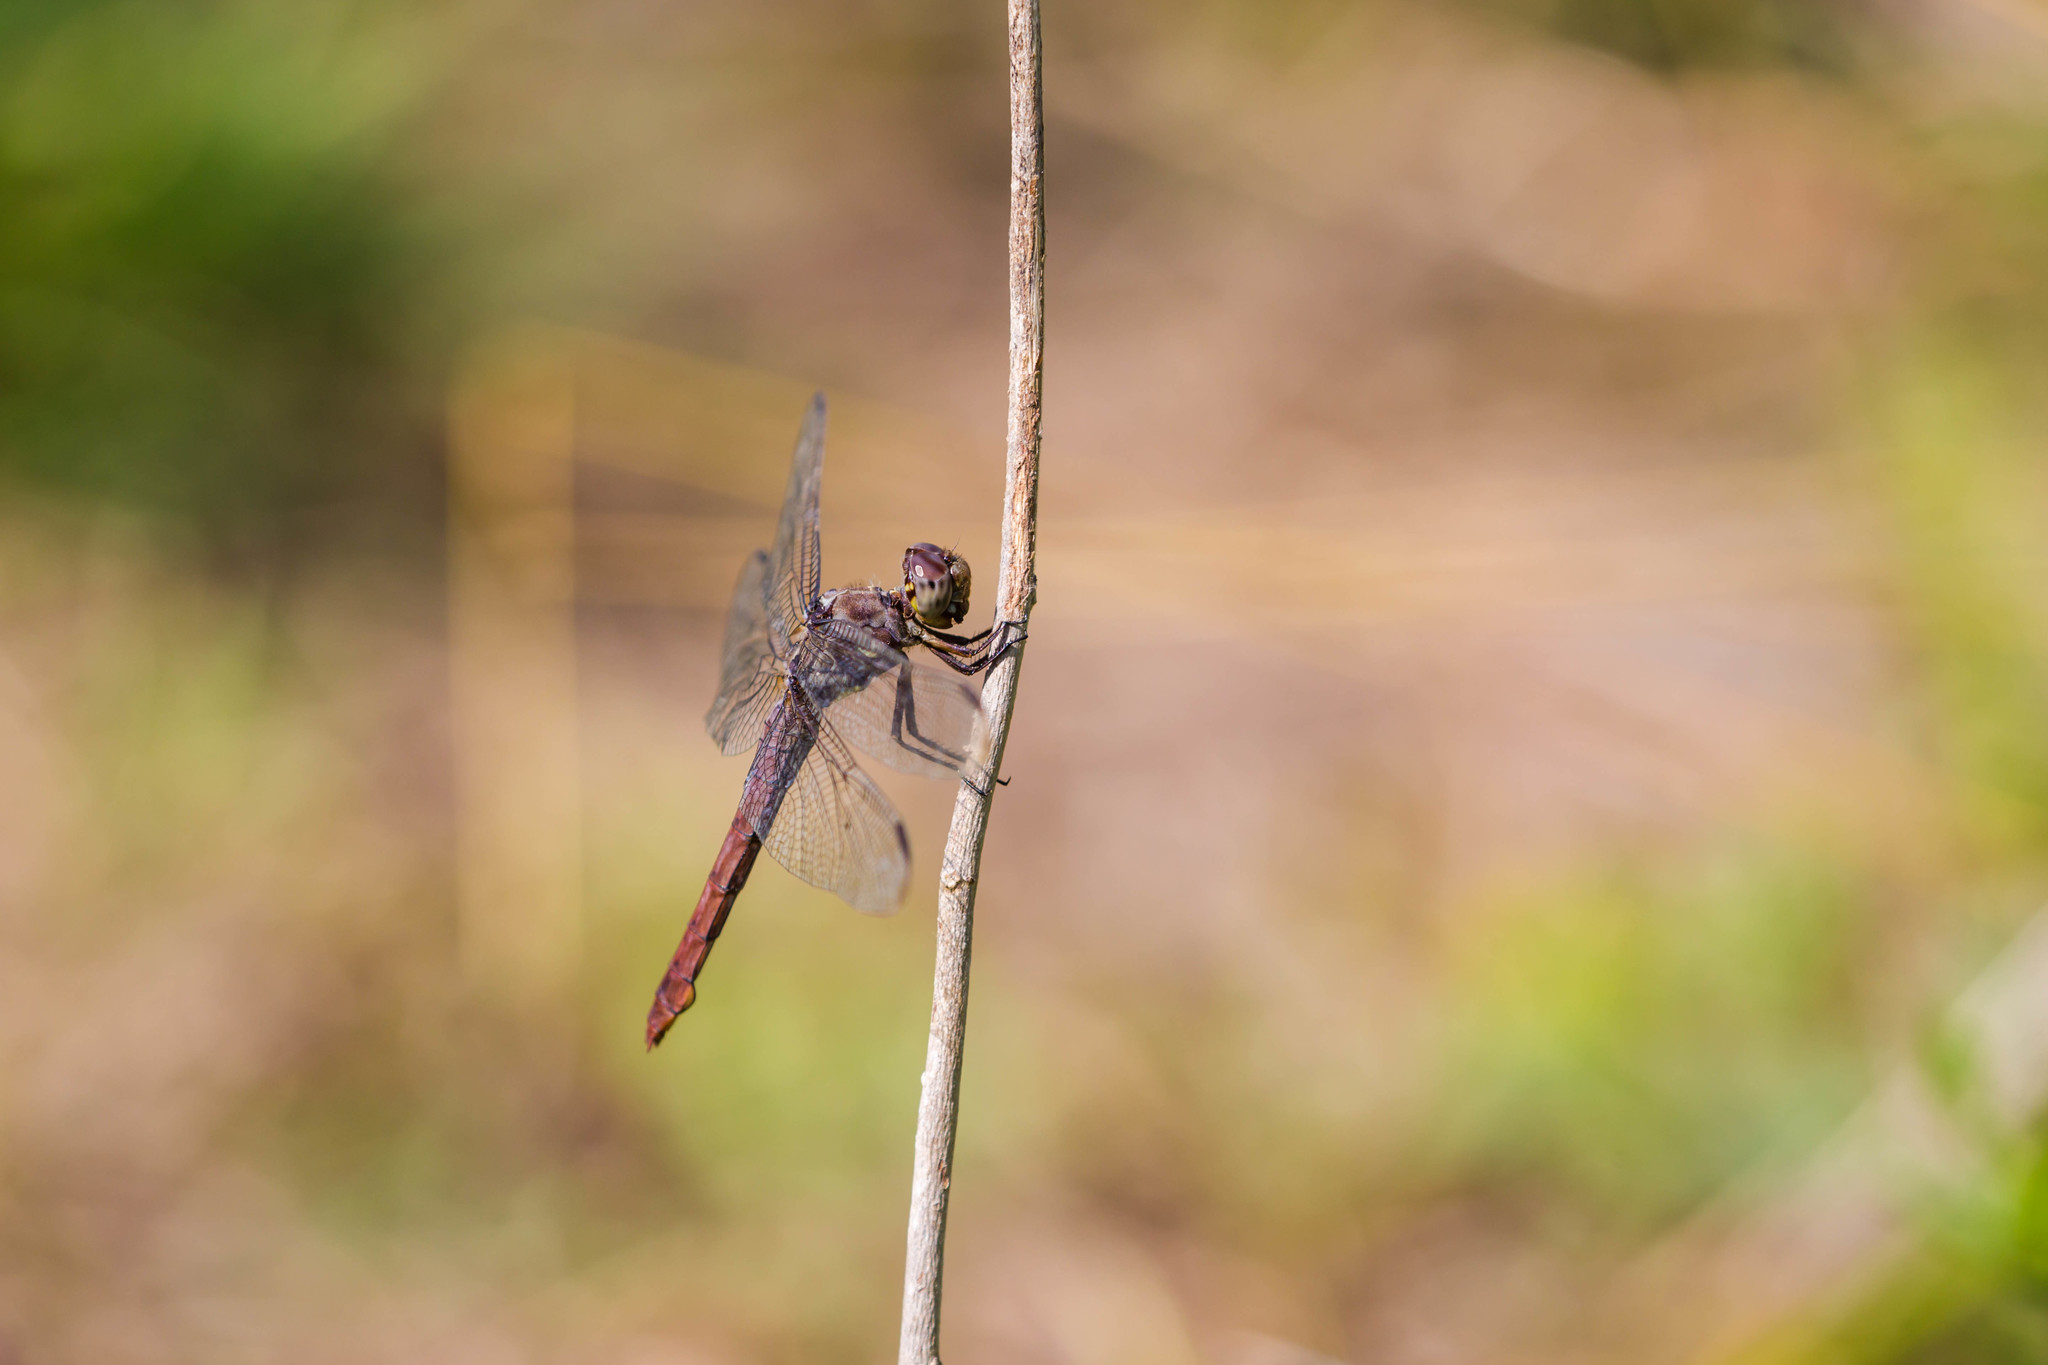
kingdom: Animalia
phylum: Arthropoda
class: Insecta
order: Odonata
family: Libellulidae
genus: Orthemis
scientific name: Orthemis ferruginea
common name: Roseate skimmer
